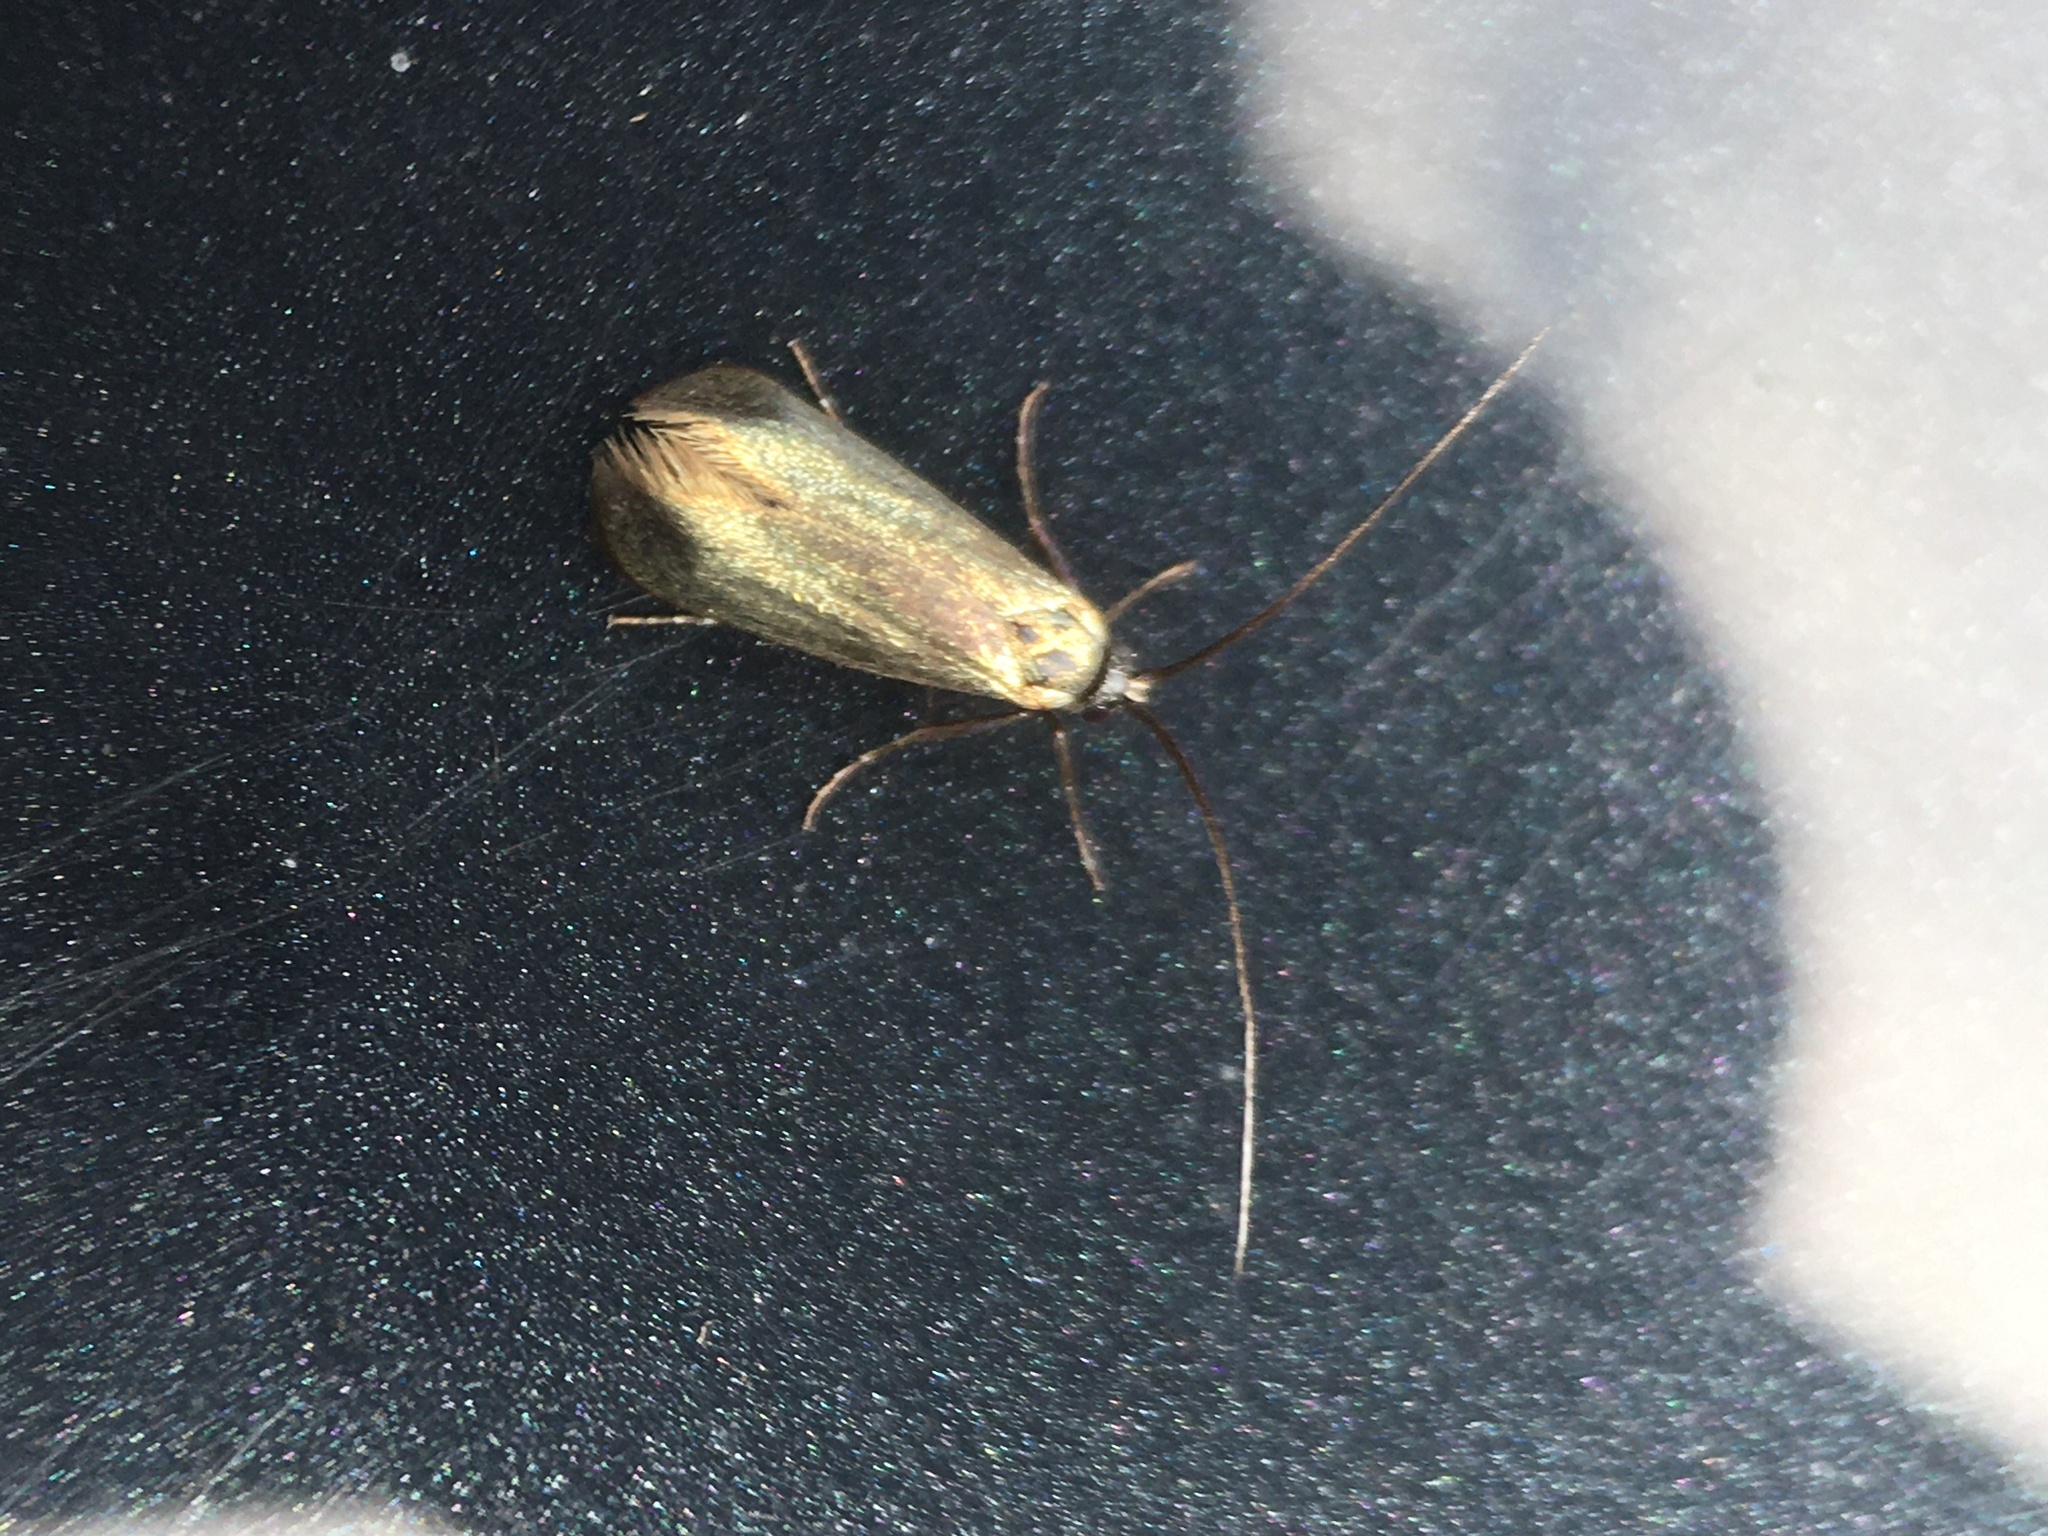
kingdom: Animalia
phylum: Arthropoda
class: Insecta
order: Lepidoptera
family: Adelidae
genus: Adela
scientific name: Adela viridella
